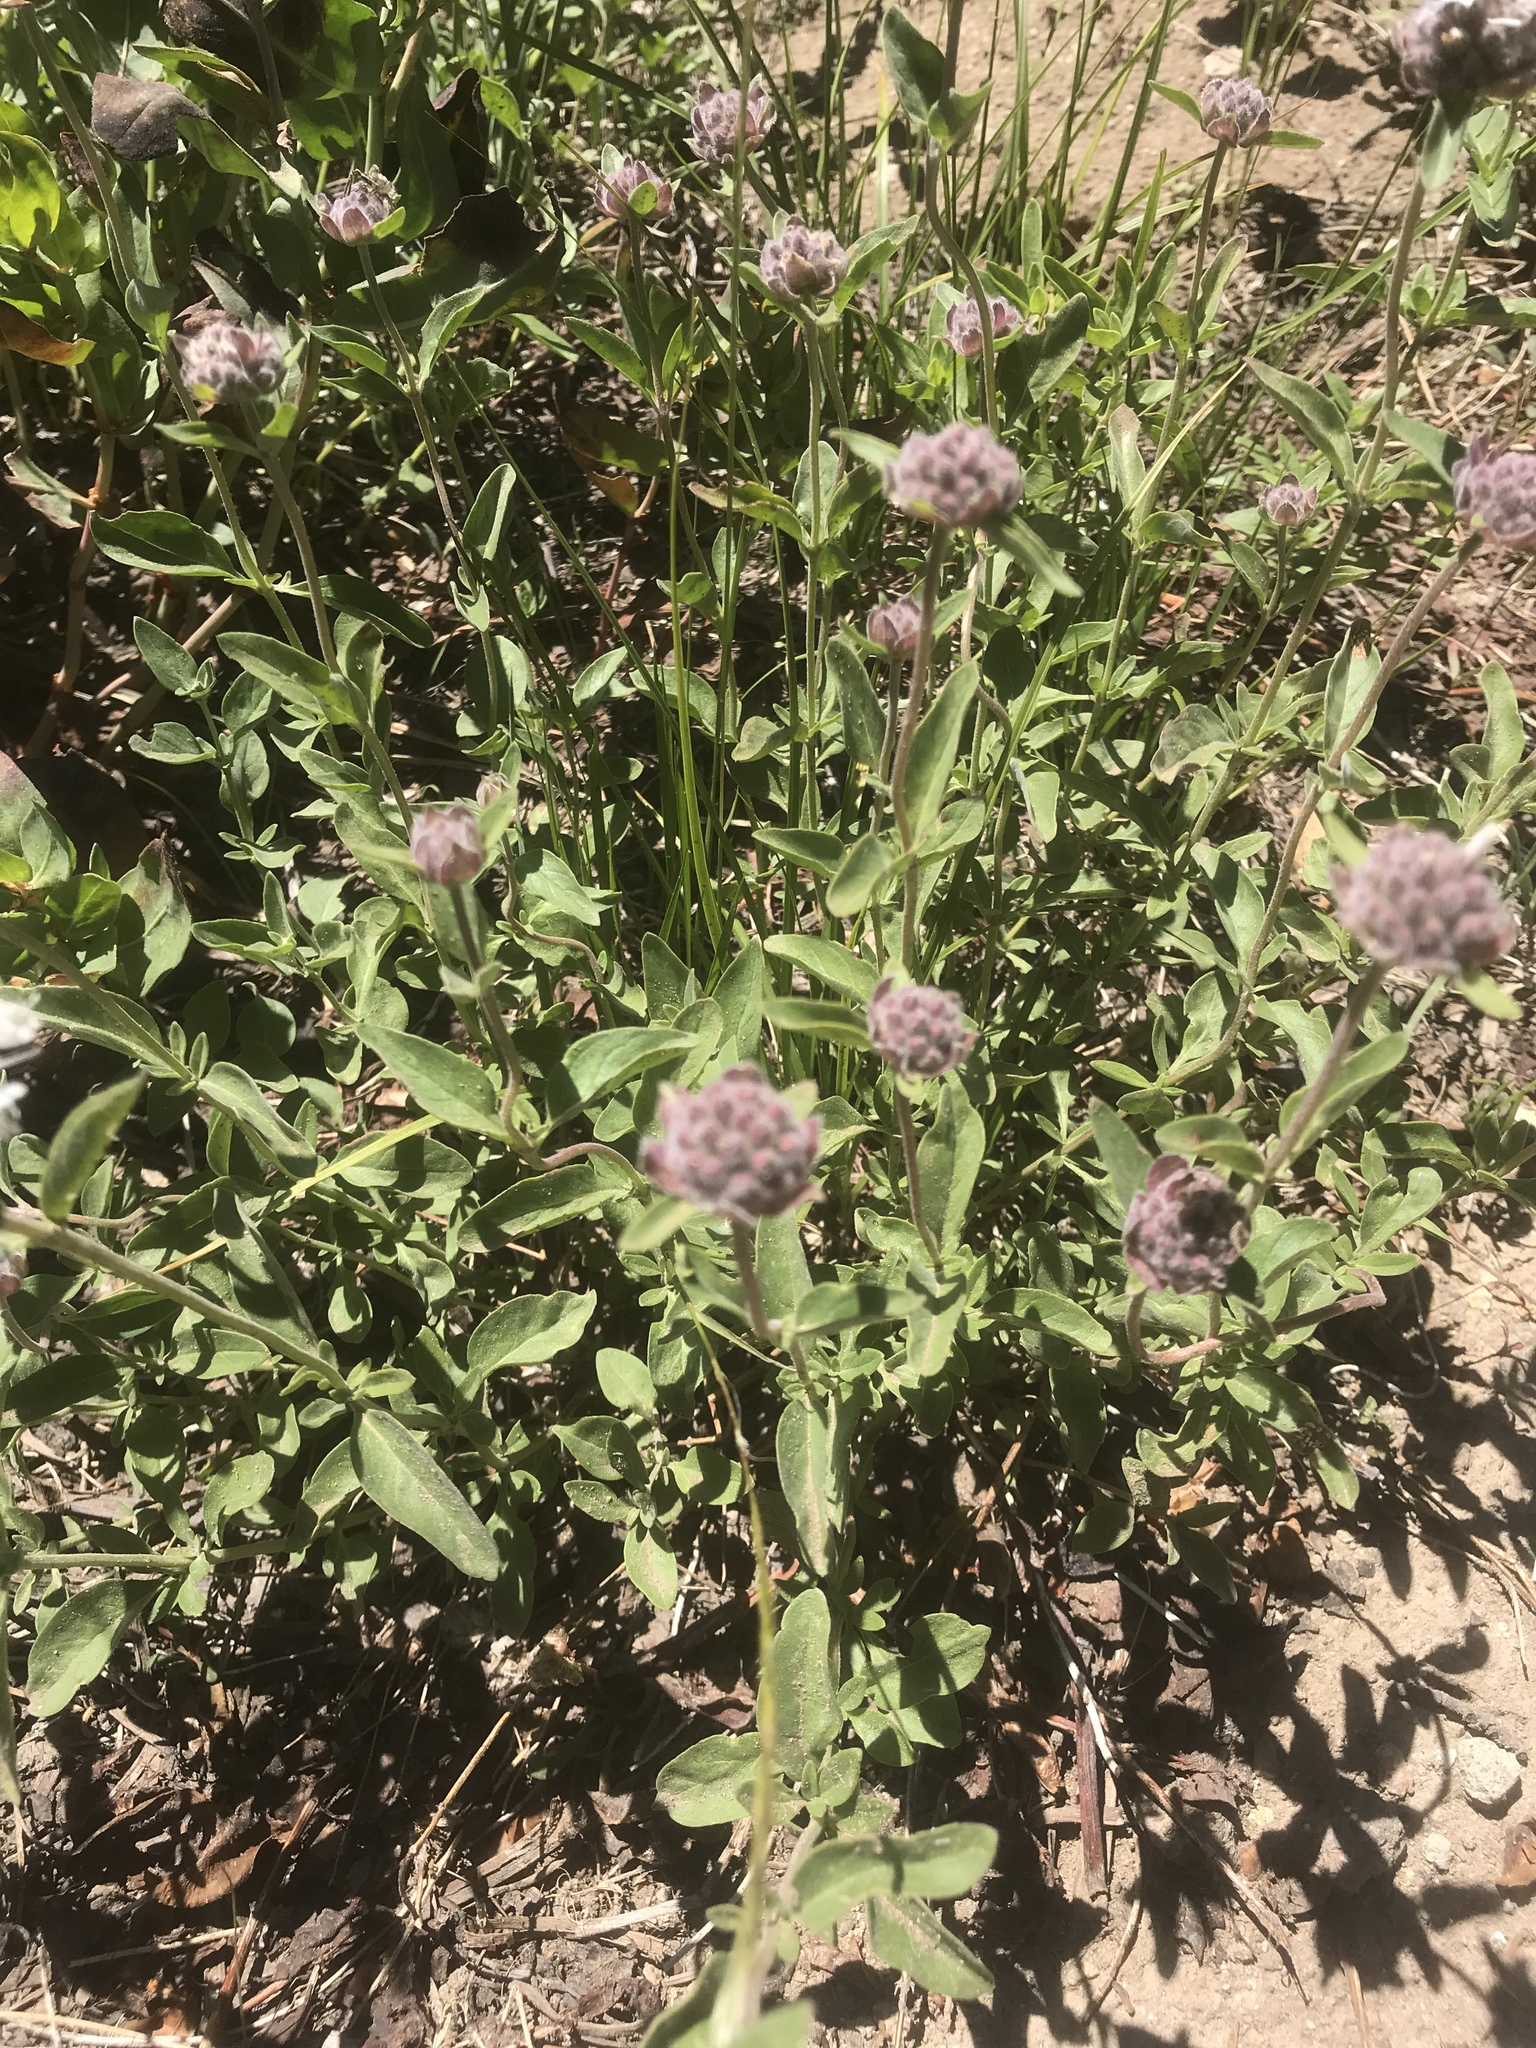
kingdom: Plantae
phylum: Tracheophyta
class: Magnoliopsida
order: Lamiales
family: Lamiaceae
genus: Monardella
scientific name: Monardella odoratissima
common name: Pacific monardella
